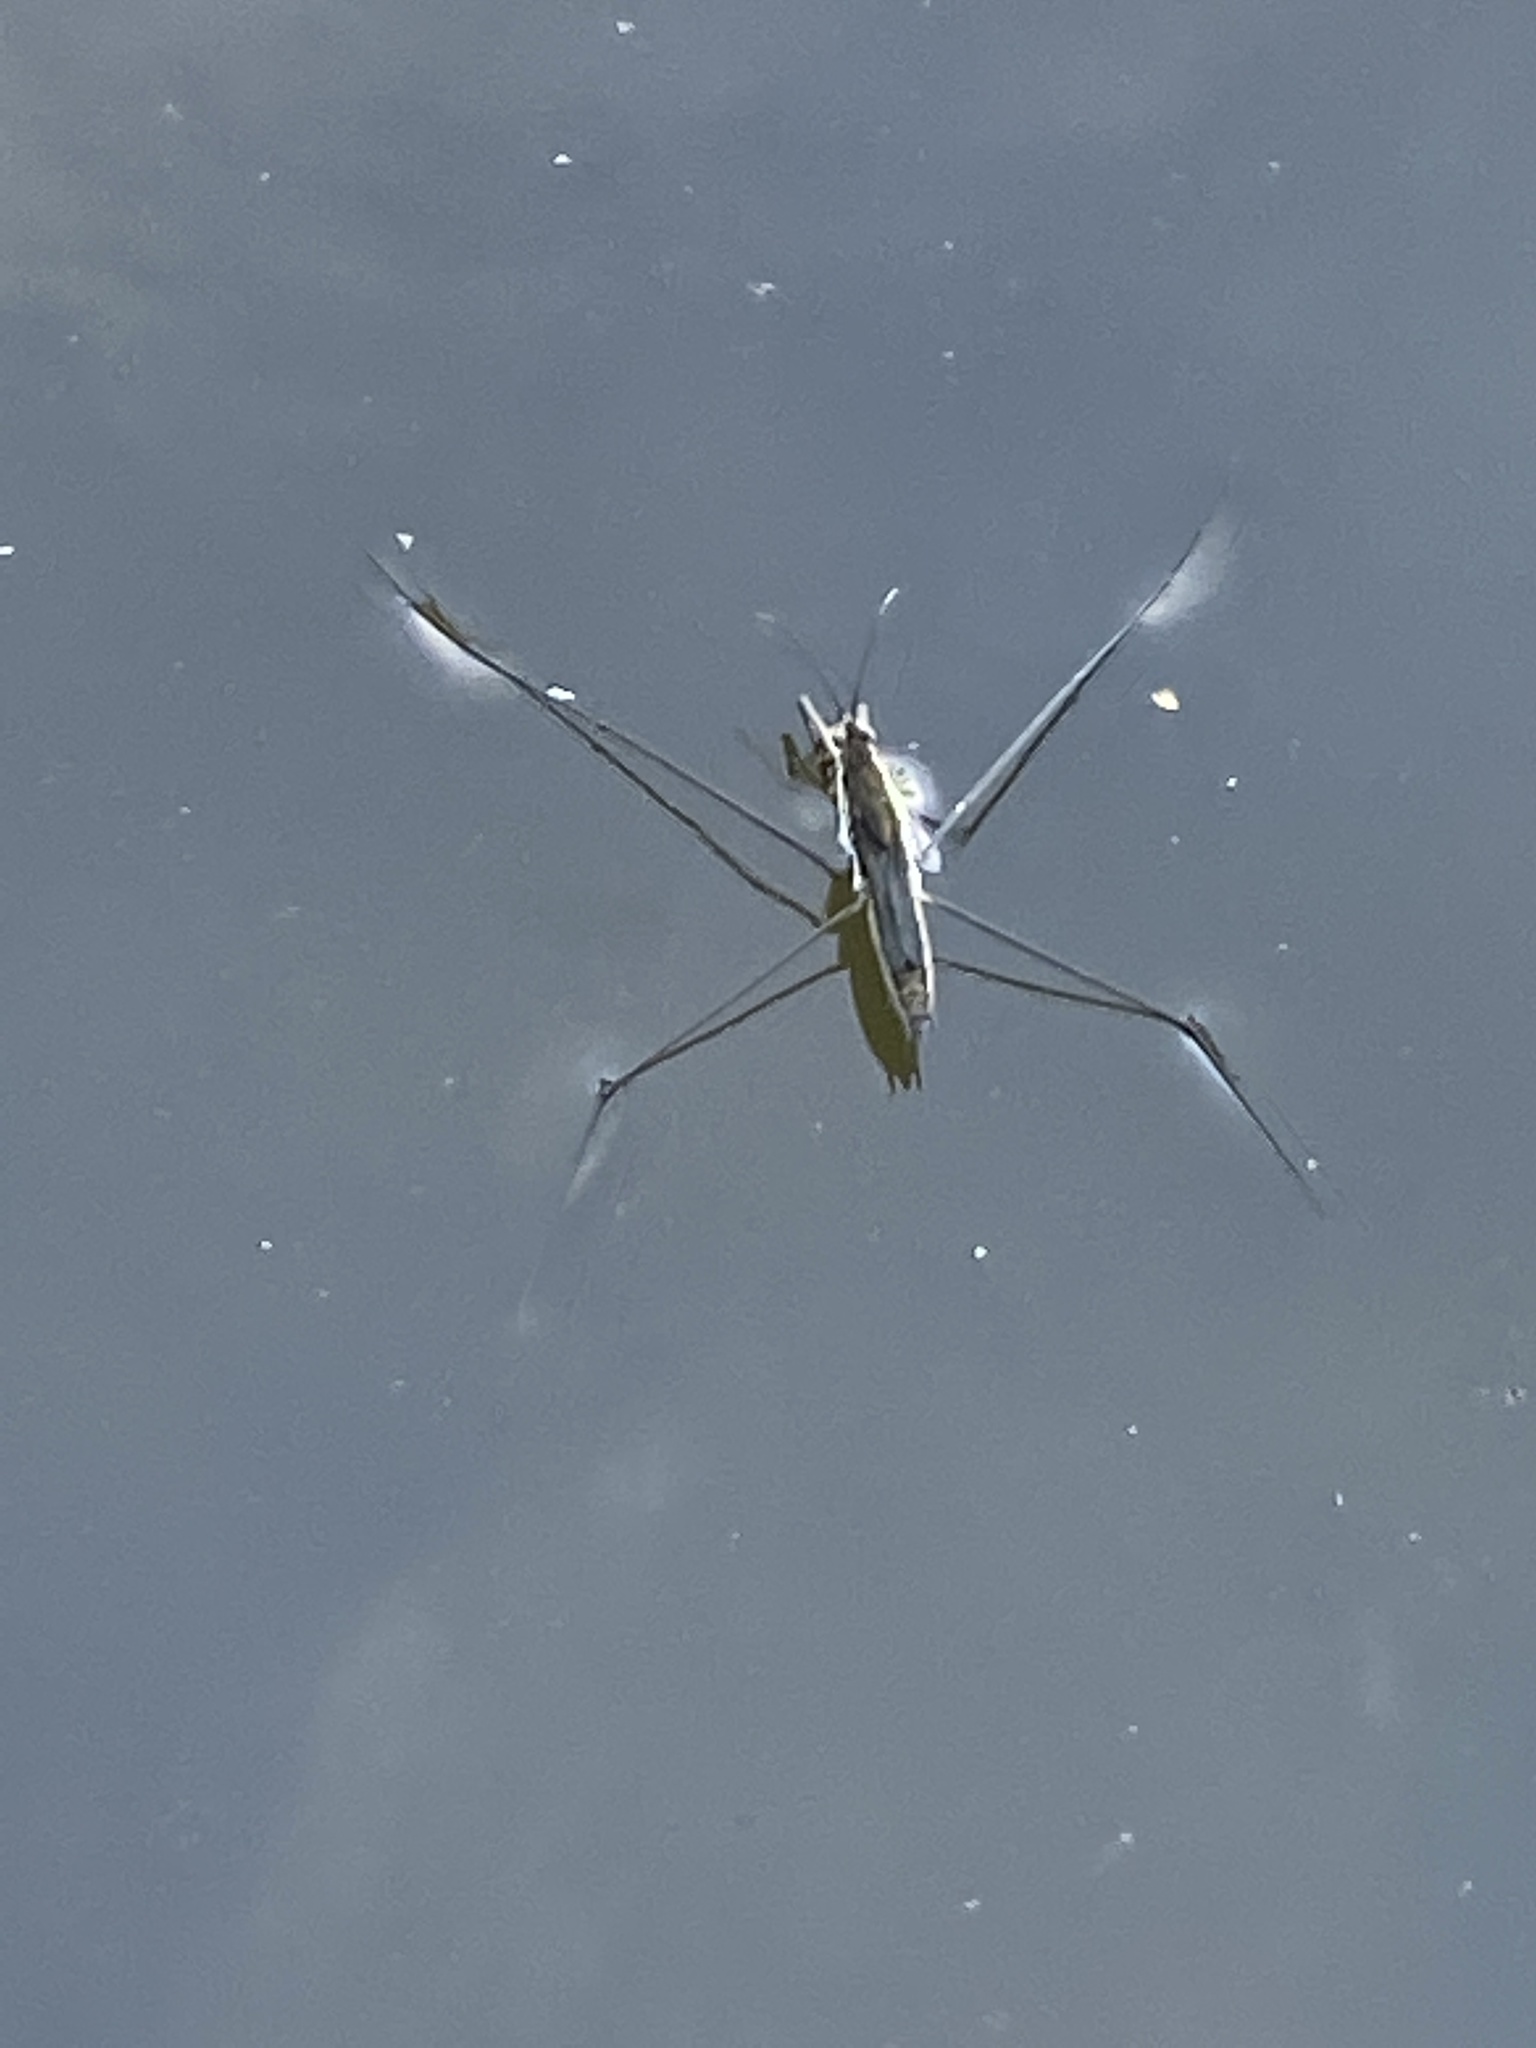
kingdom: Animalia
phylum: Arthropoda
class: Insecta
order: Hemiptera
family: Gerridae
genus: Aquarius
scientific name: Aquarius paludum
